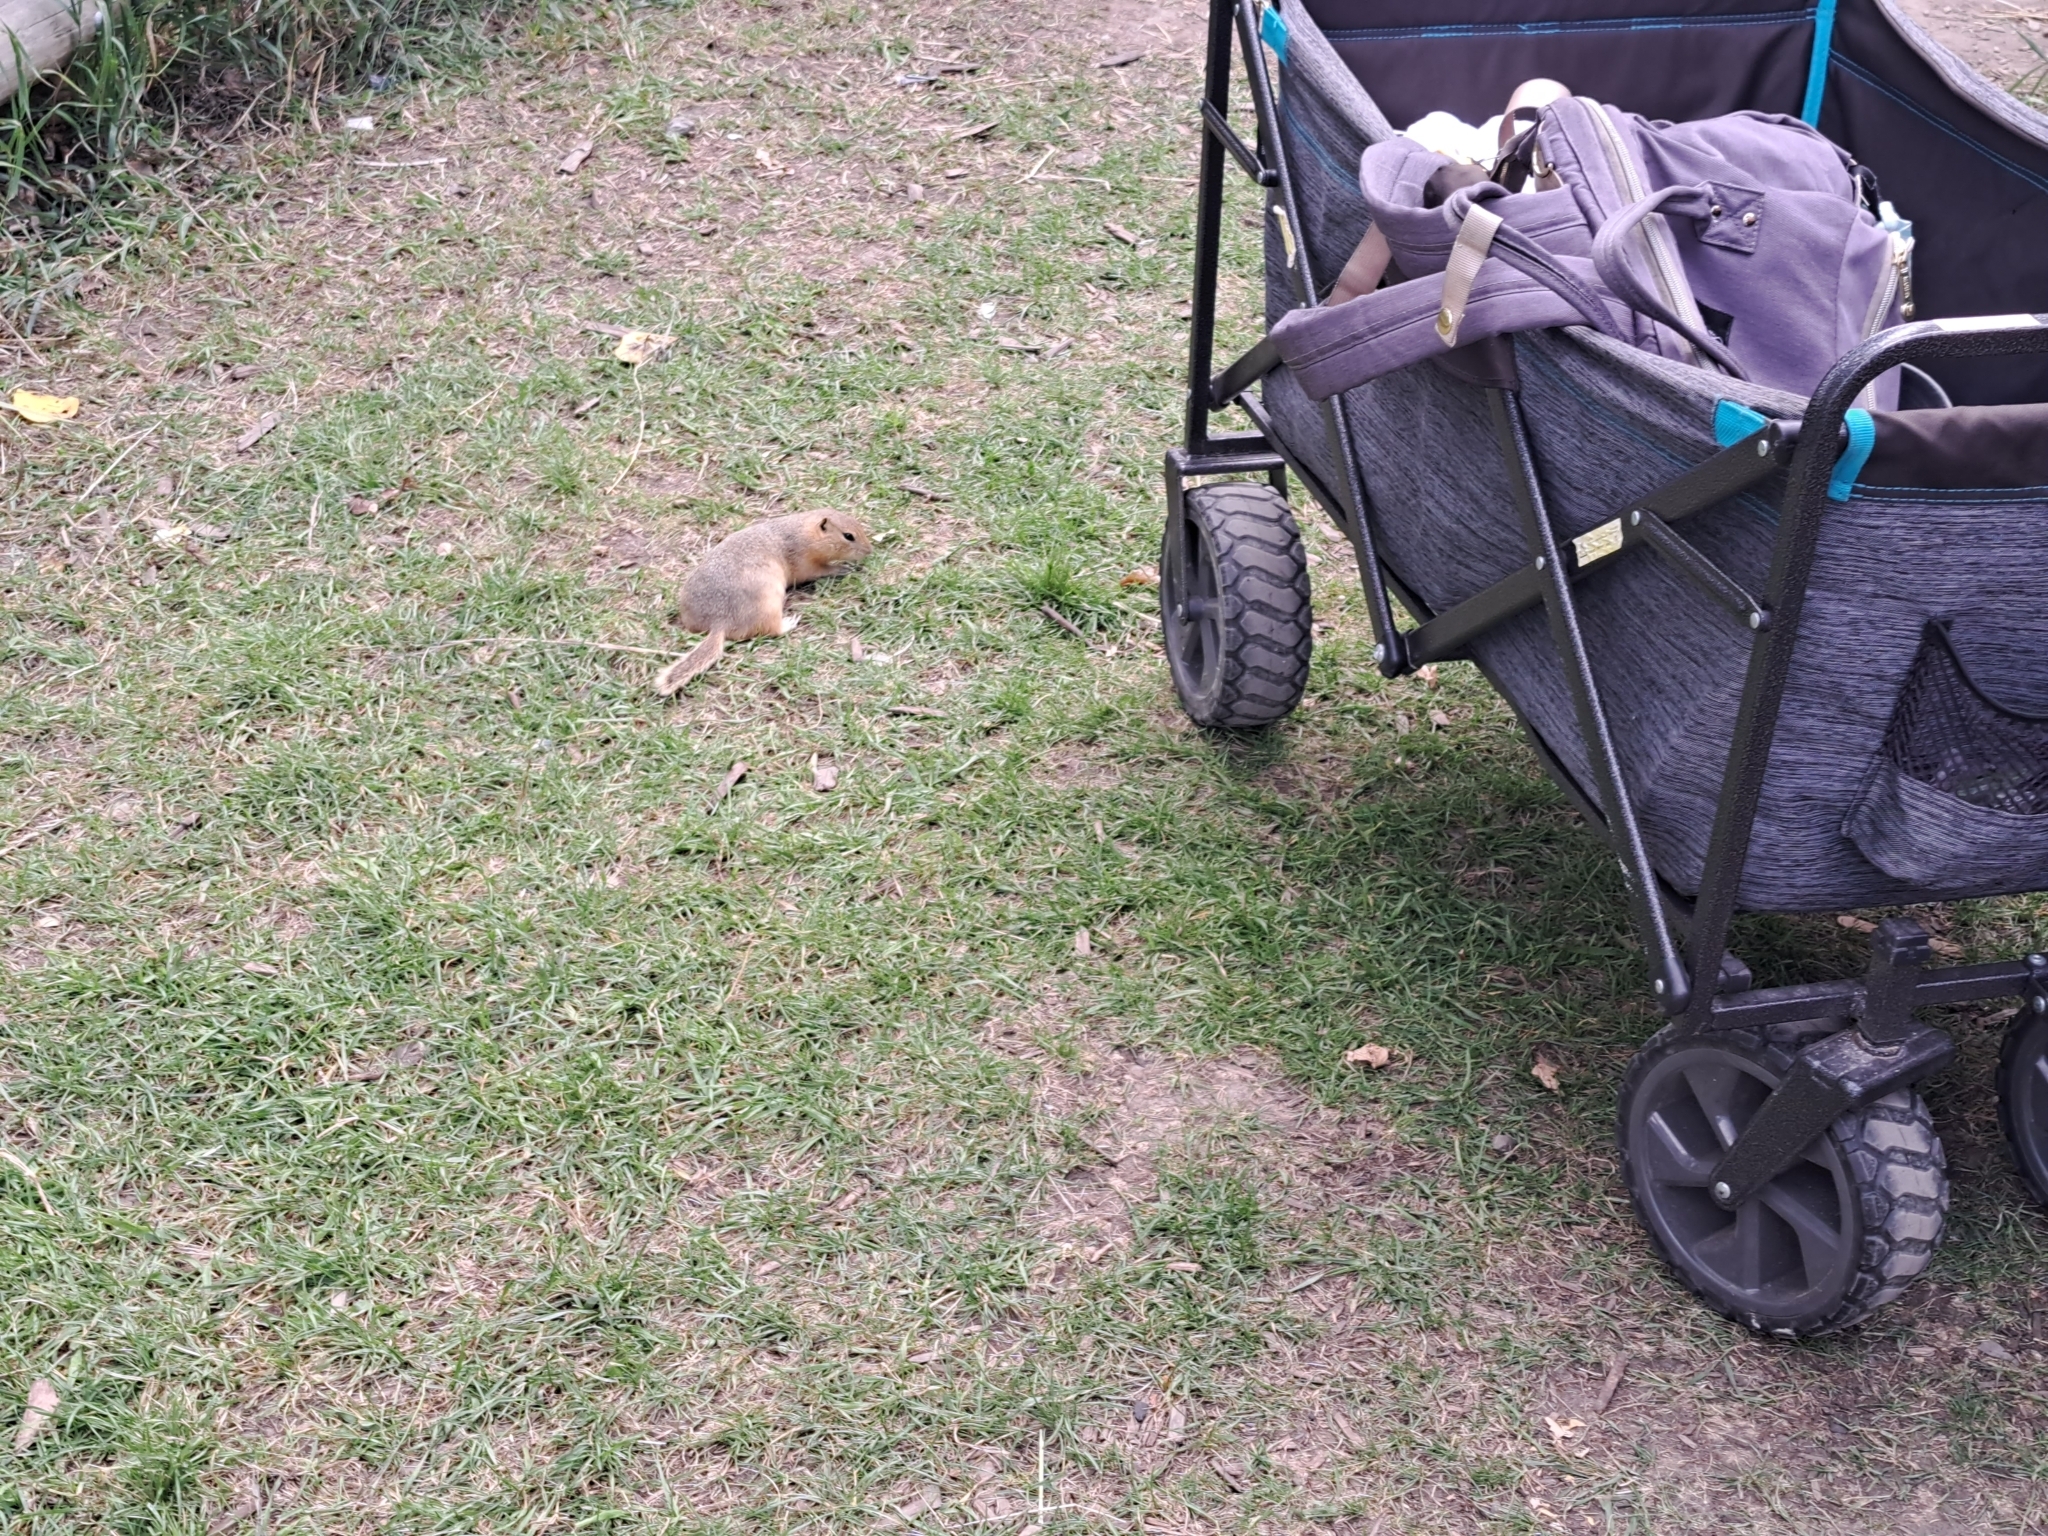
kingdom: Animalia
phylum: Chordata
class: Mammalia
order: Rodentia
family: Sciuridae
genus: Urocitellus
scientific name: Urocitellus richardsonii
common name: Richardson's ground squirrel
